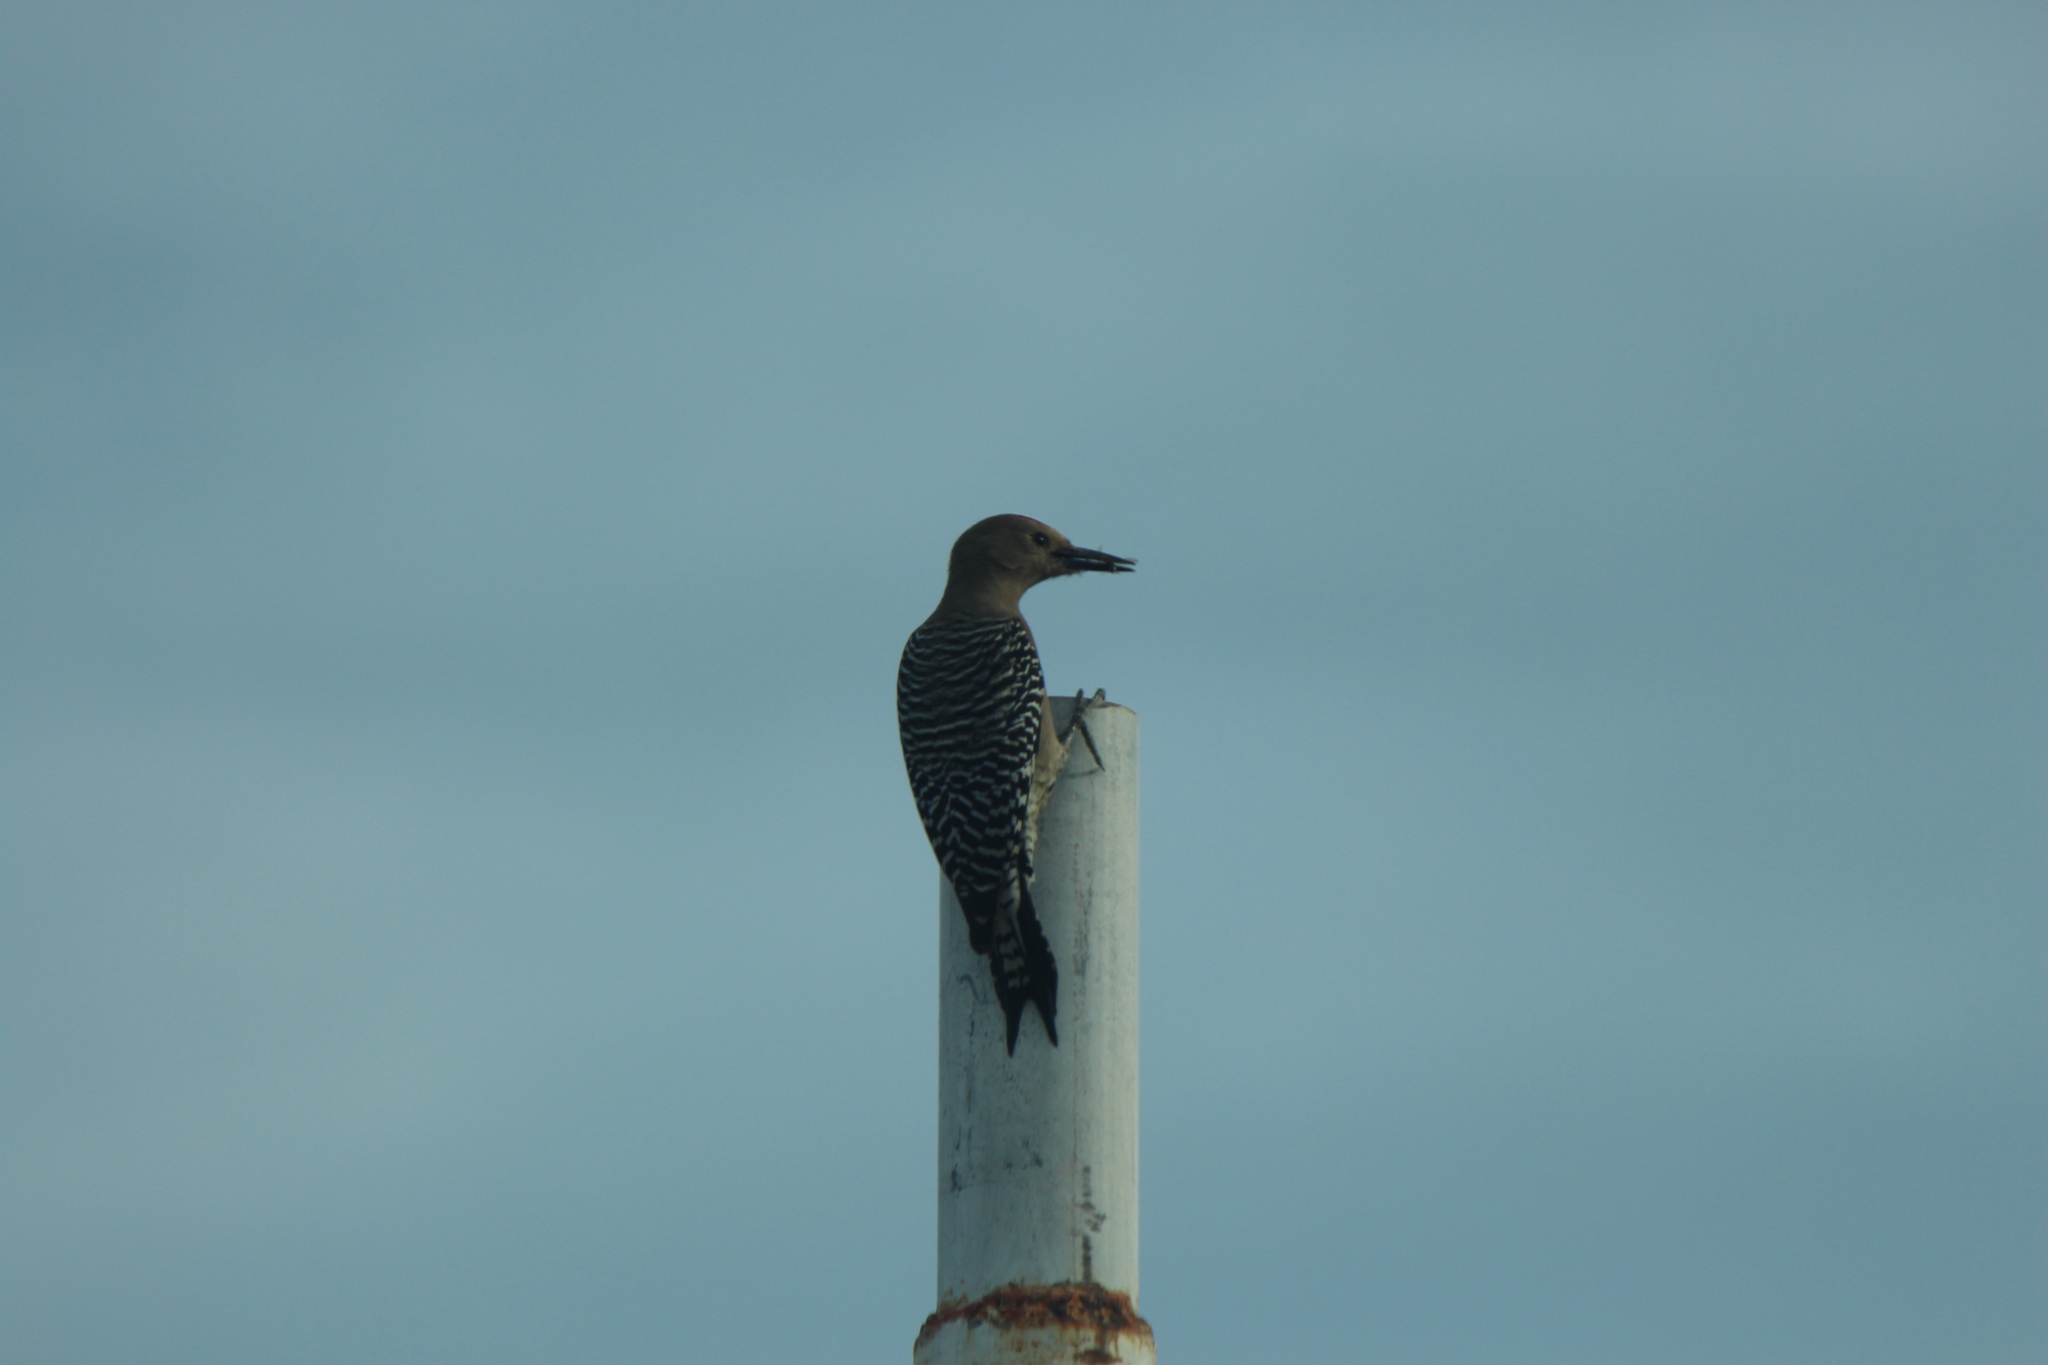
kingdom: Animalia
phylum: Chordata
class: Aves
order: Piciformes
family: Picidae
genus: Melanerpes
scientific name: Melanerpes uropygialis
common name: Gila woodpecker
